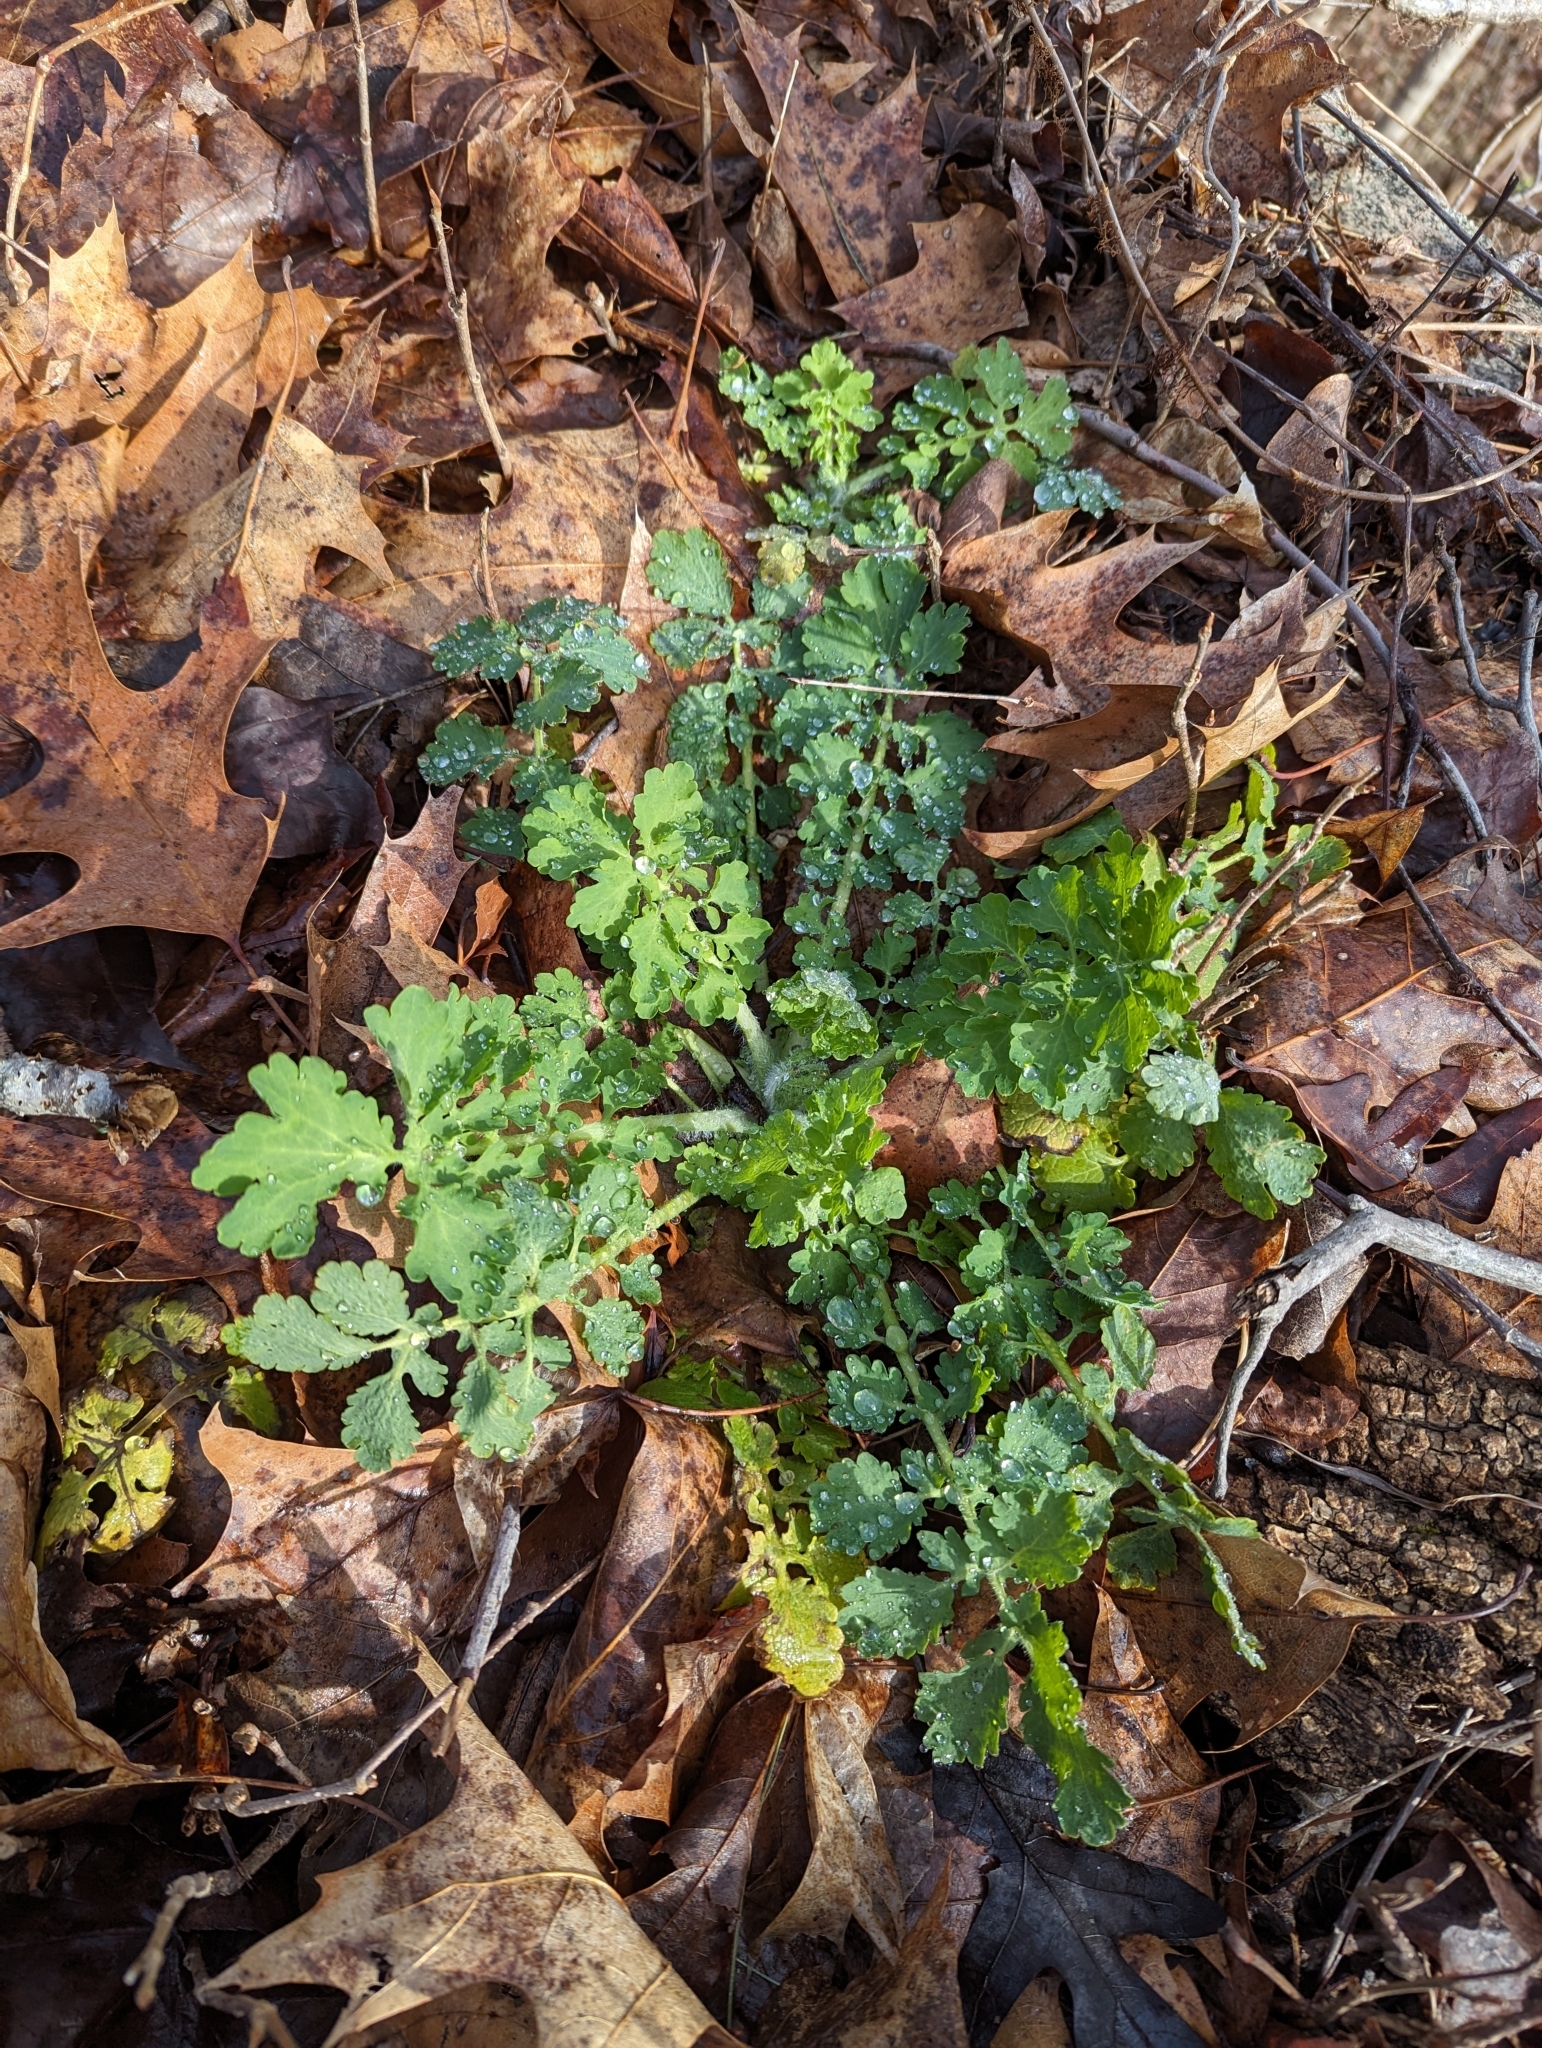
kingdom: Plantae
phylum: Tracheophyta
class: Magnoliopsida
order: Ranunculales
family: Papaveraceae
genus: Chelidonium
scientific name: Chelidonium majus
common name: Greater celandine
